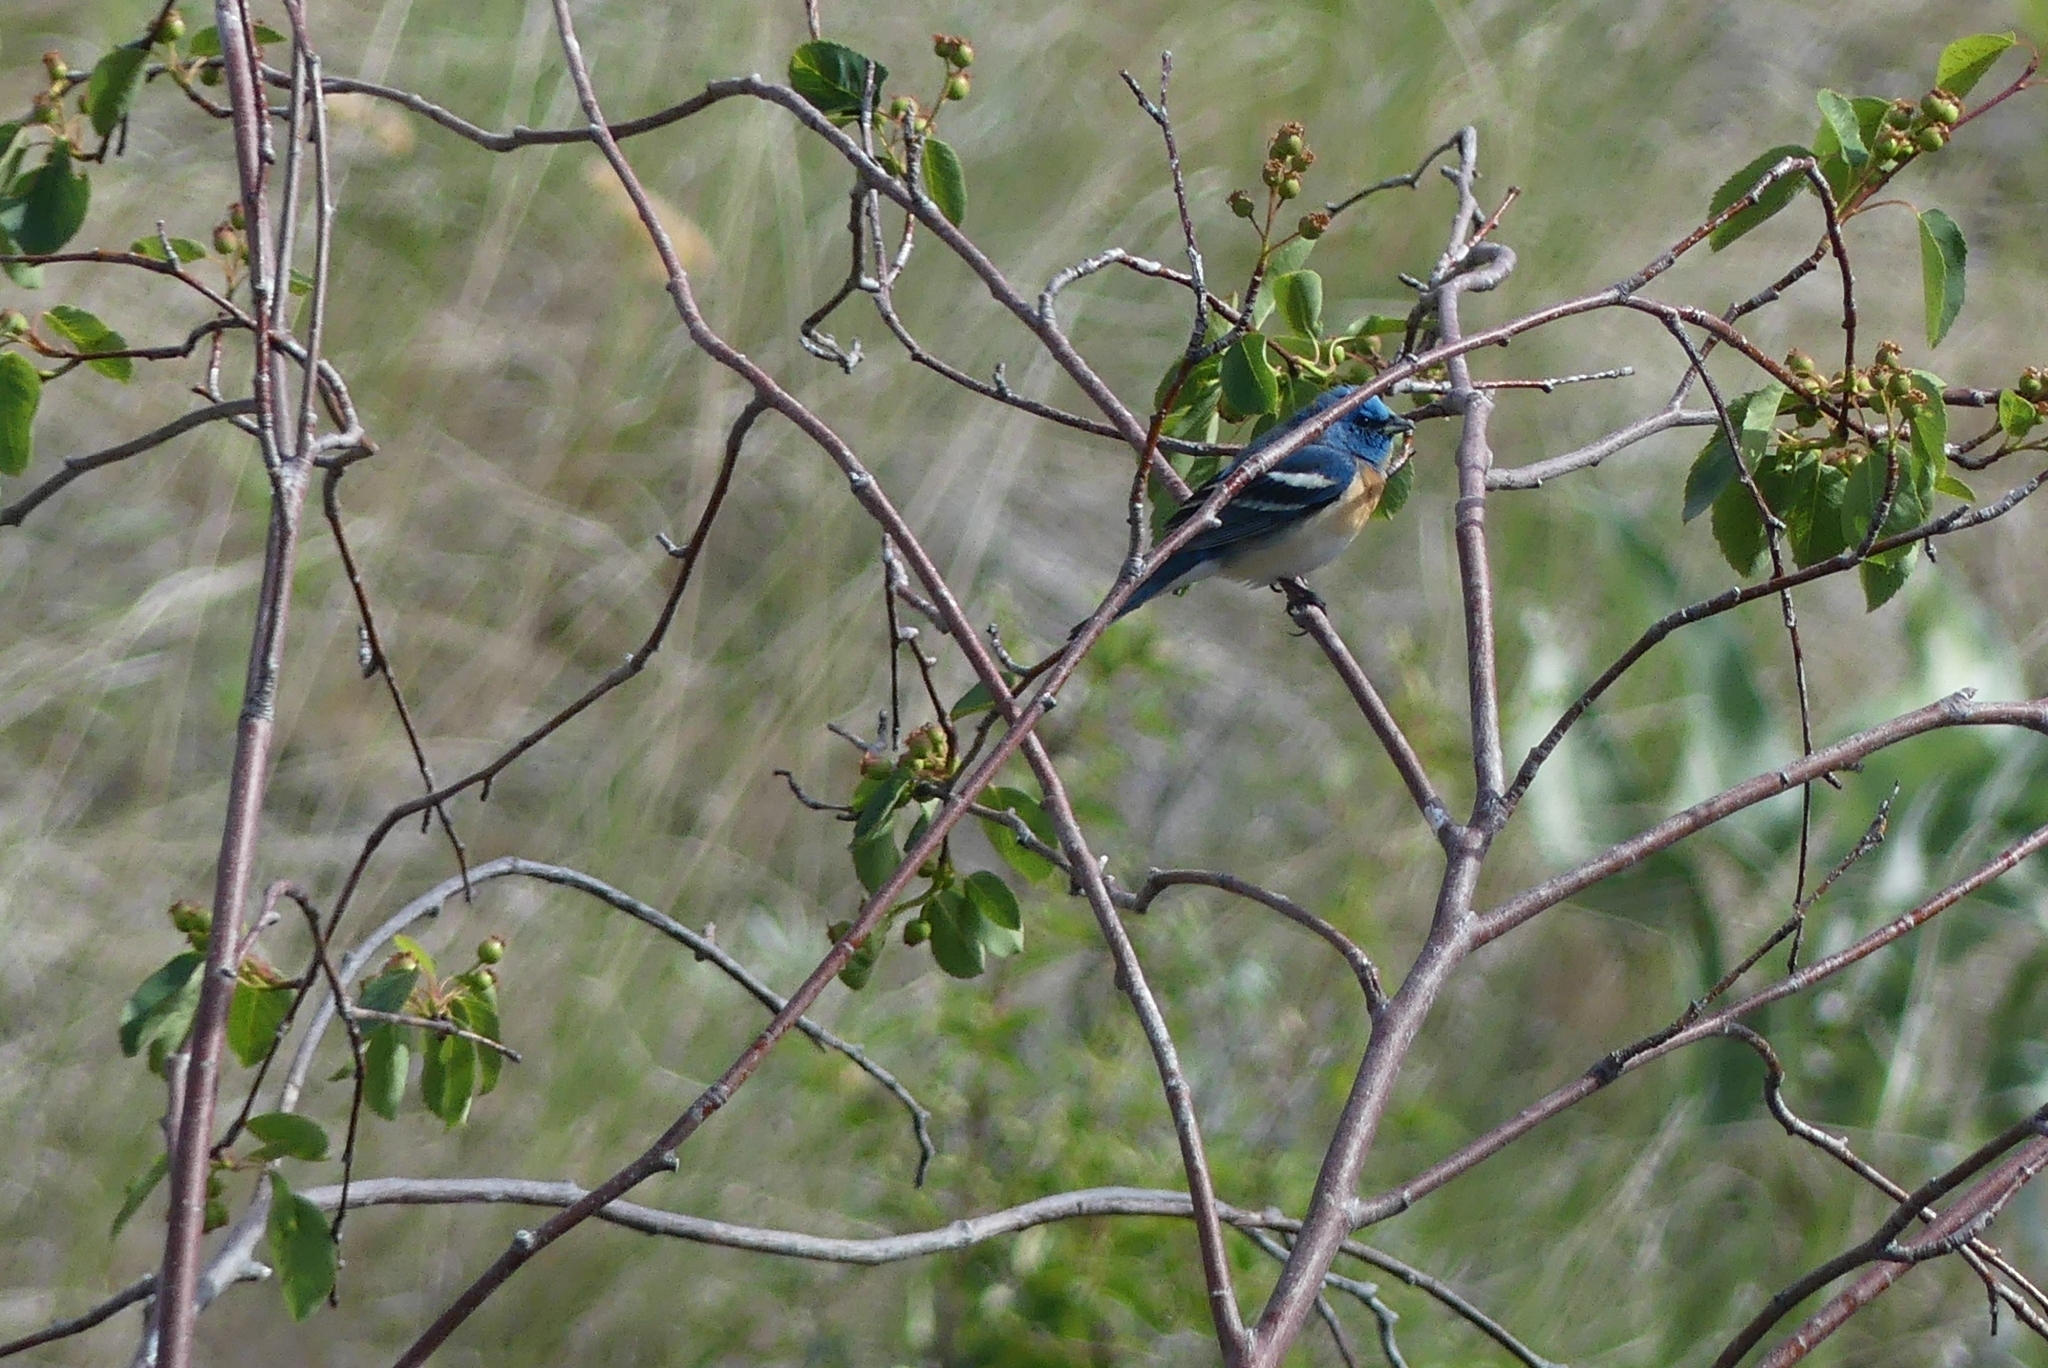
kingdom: Animalia
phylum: Chordata
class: Aves
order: Passeriformes
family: Cardinalidae
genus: Passerina
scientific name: Passerina amoena
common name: Lazuli bunting
